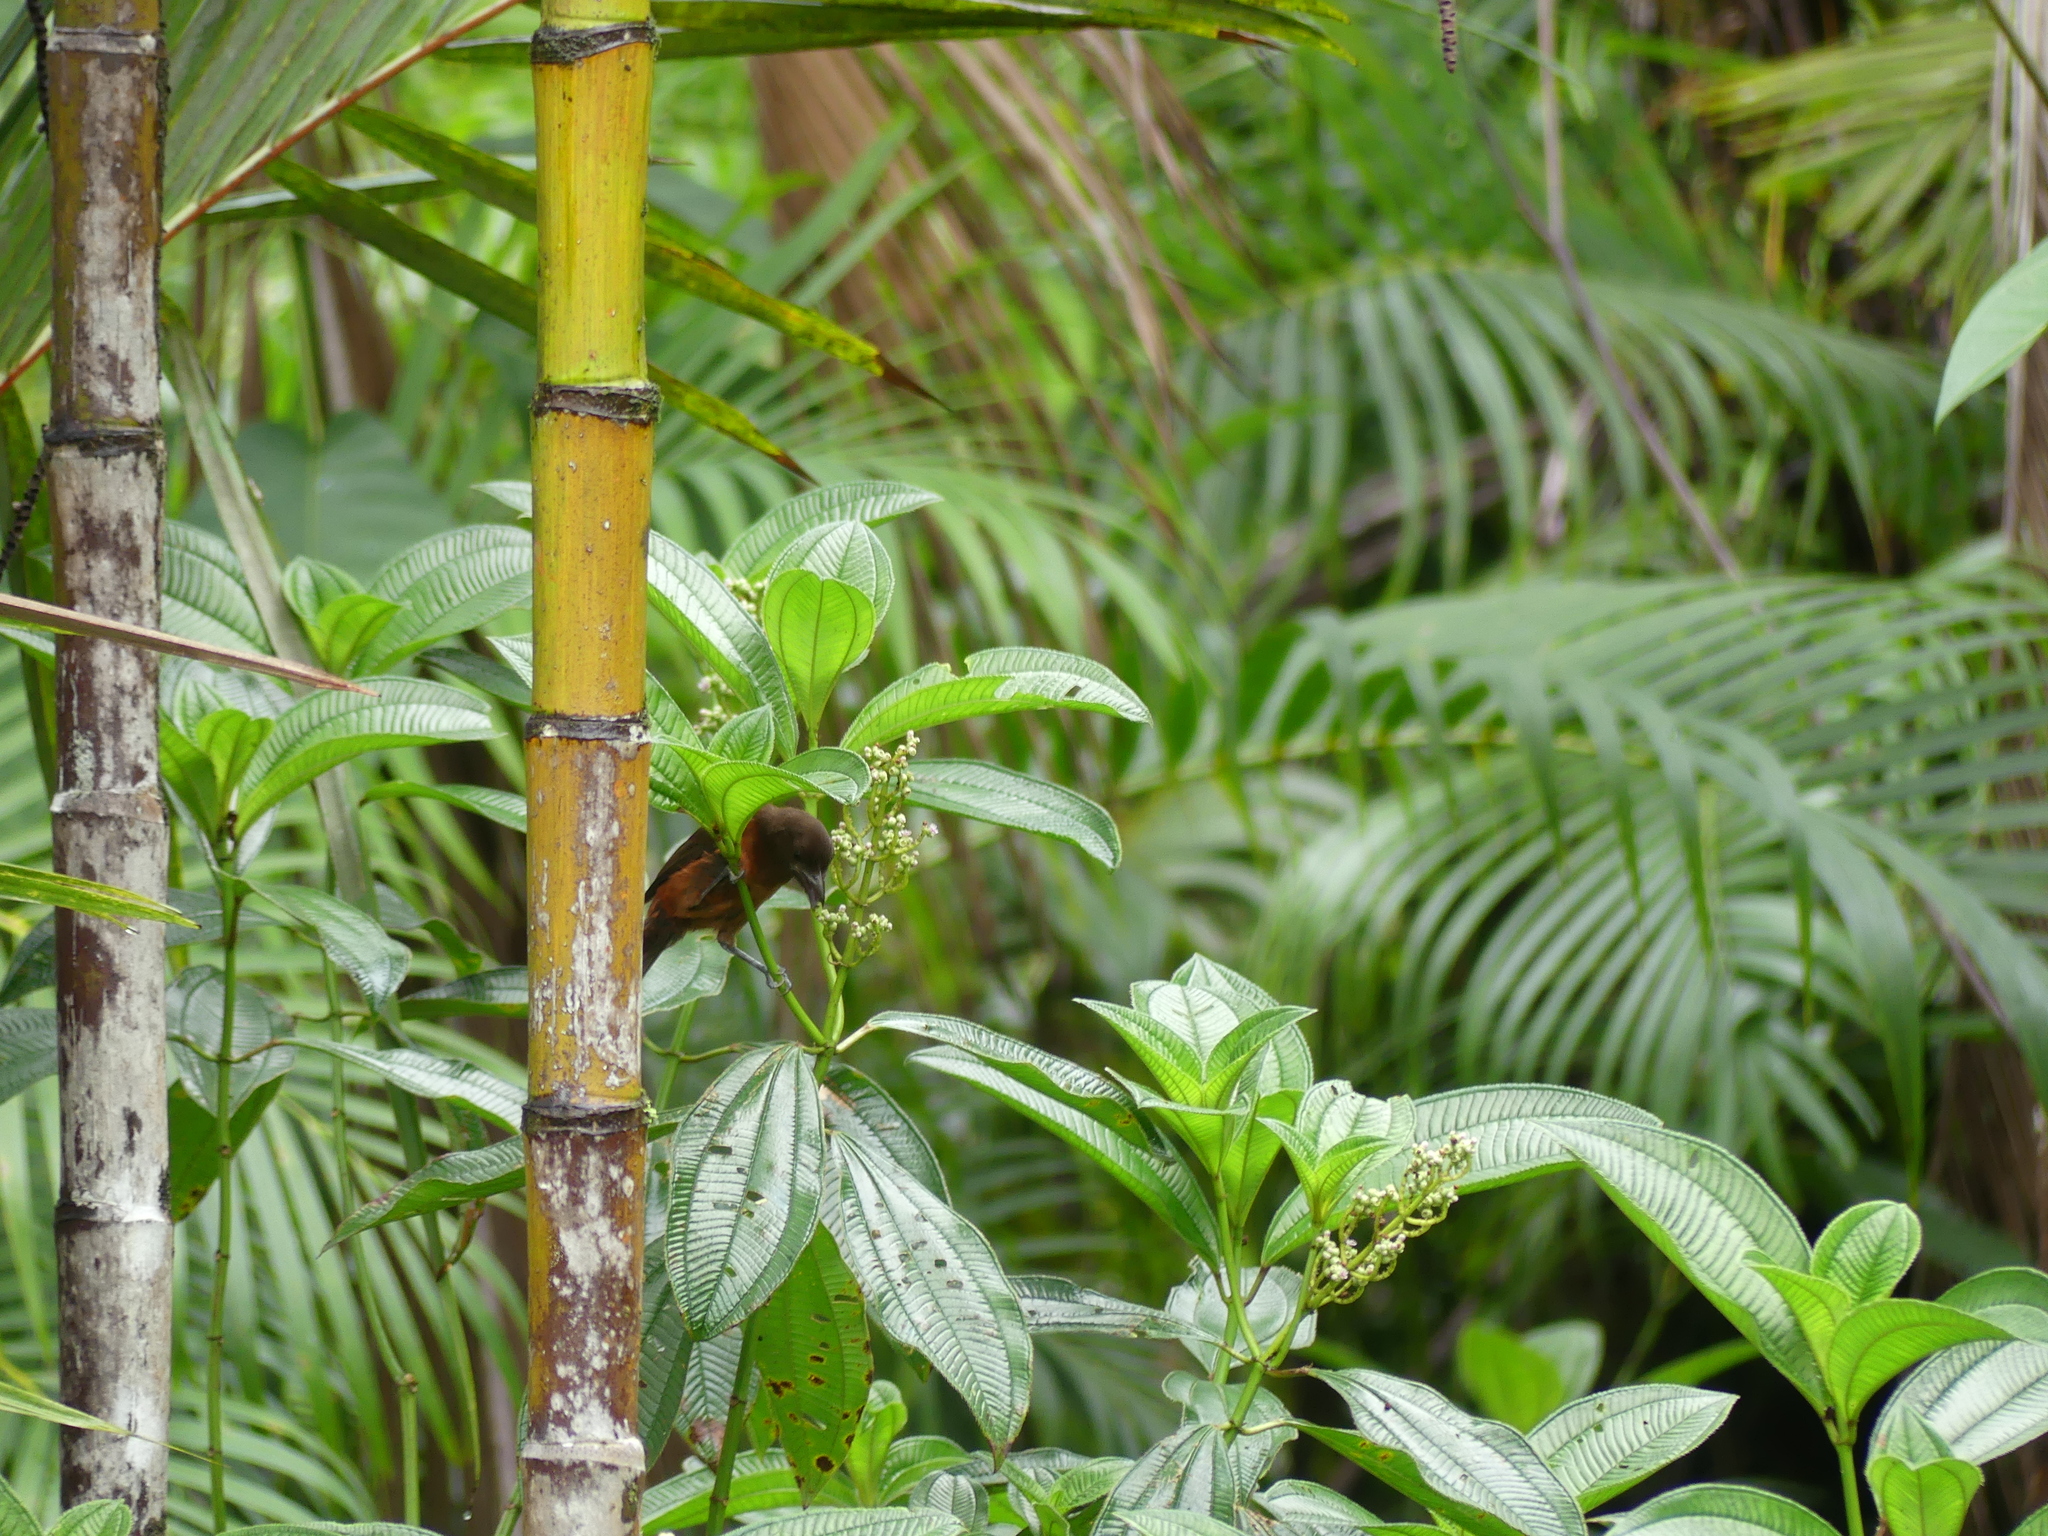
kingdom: Animalia
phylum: Chordata
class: Aves
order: Passeriformes
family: Thraupidae
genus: Ramphocelus
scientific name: Ramphocelus carbo
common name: Silver-beaked tanager
